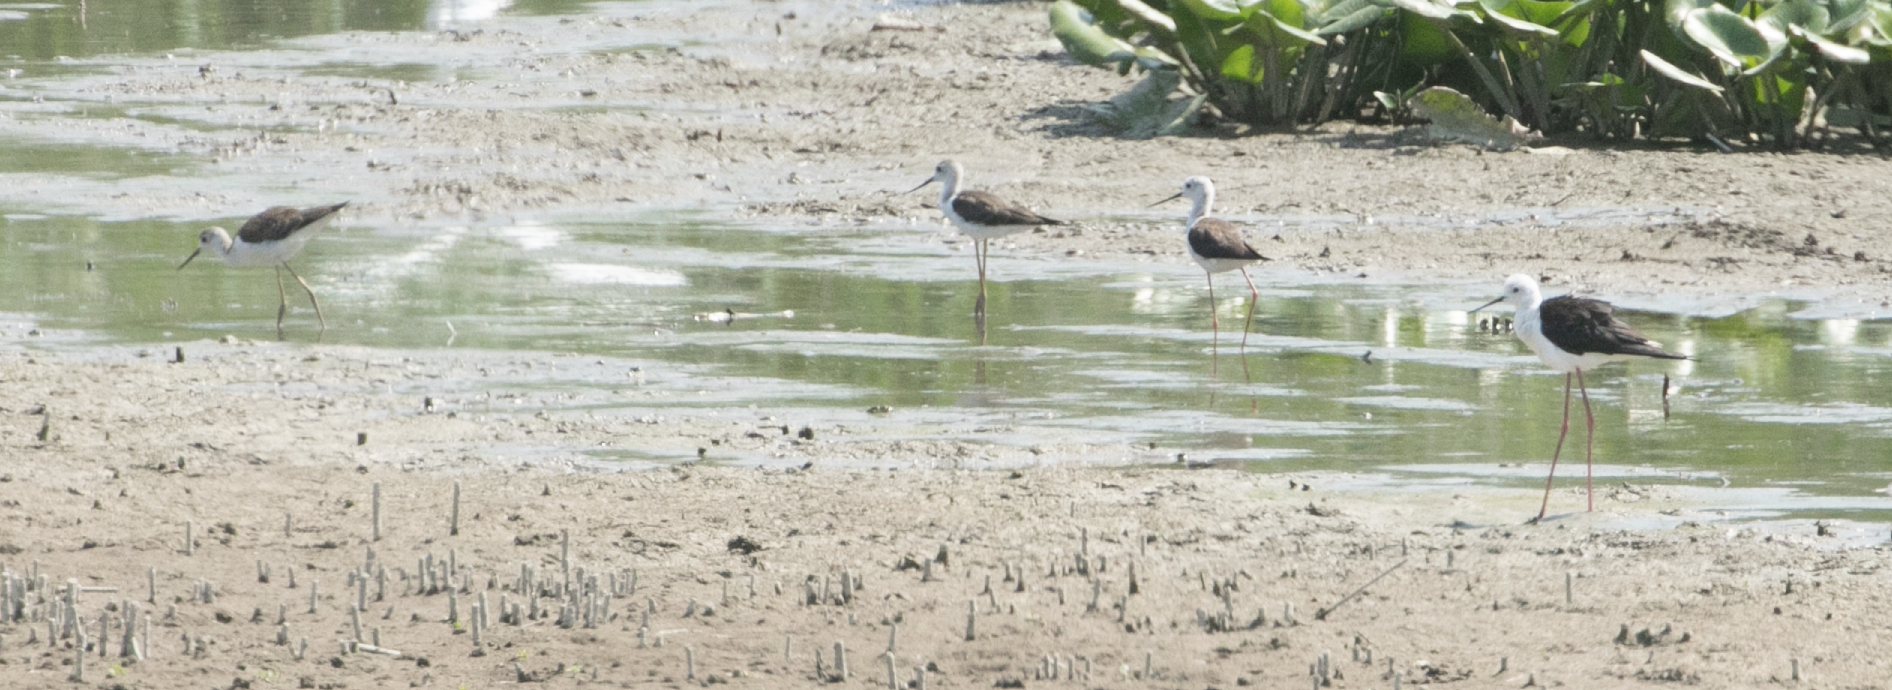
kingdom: Animalia
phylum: Chordata
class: Aves
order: Charadriiformes
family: Recurvirostridae
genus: Himantopus
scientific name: Himantopus himantopus
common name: Black-winged stilt
